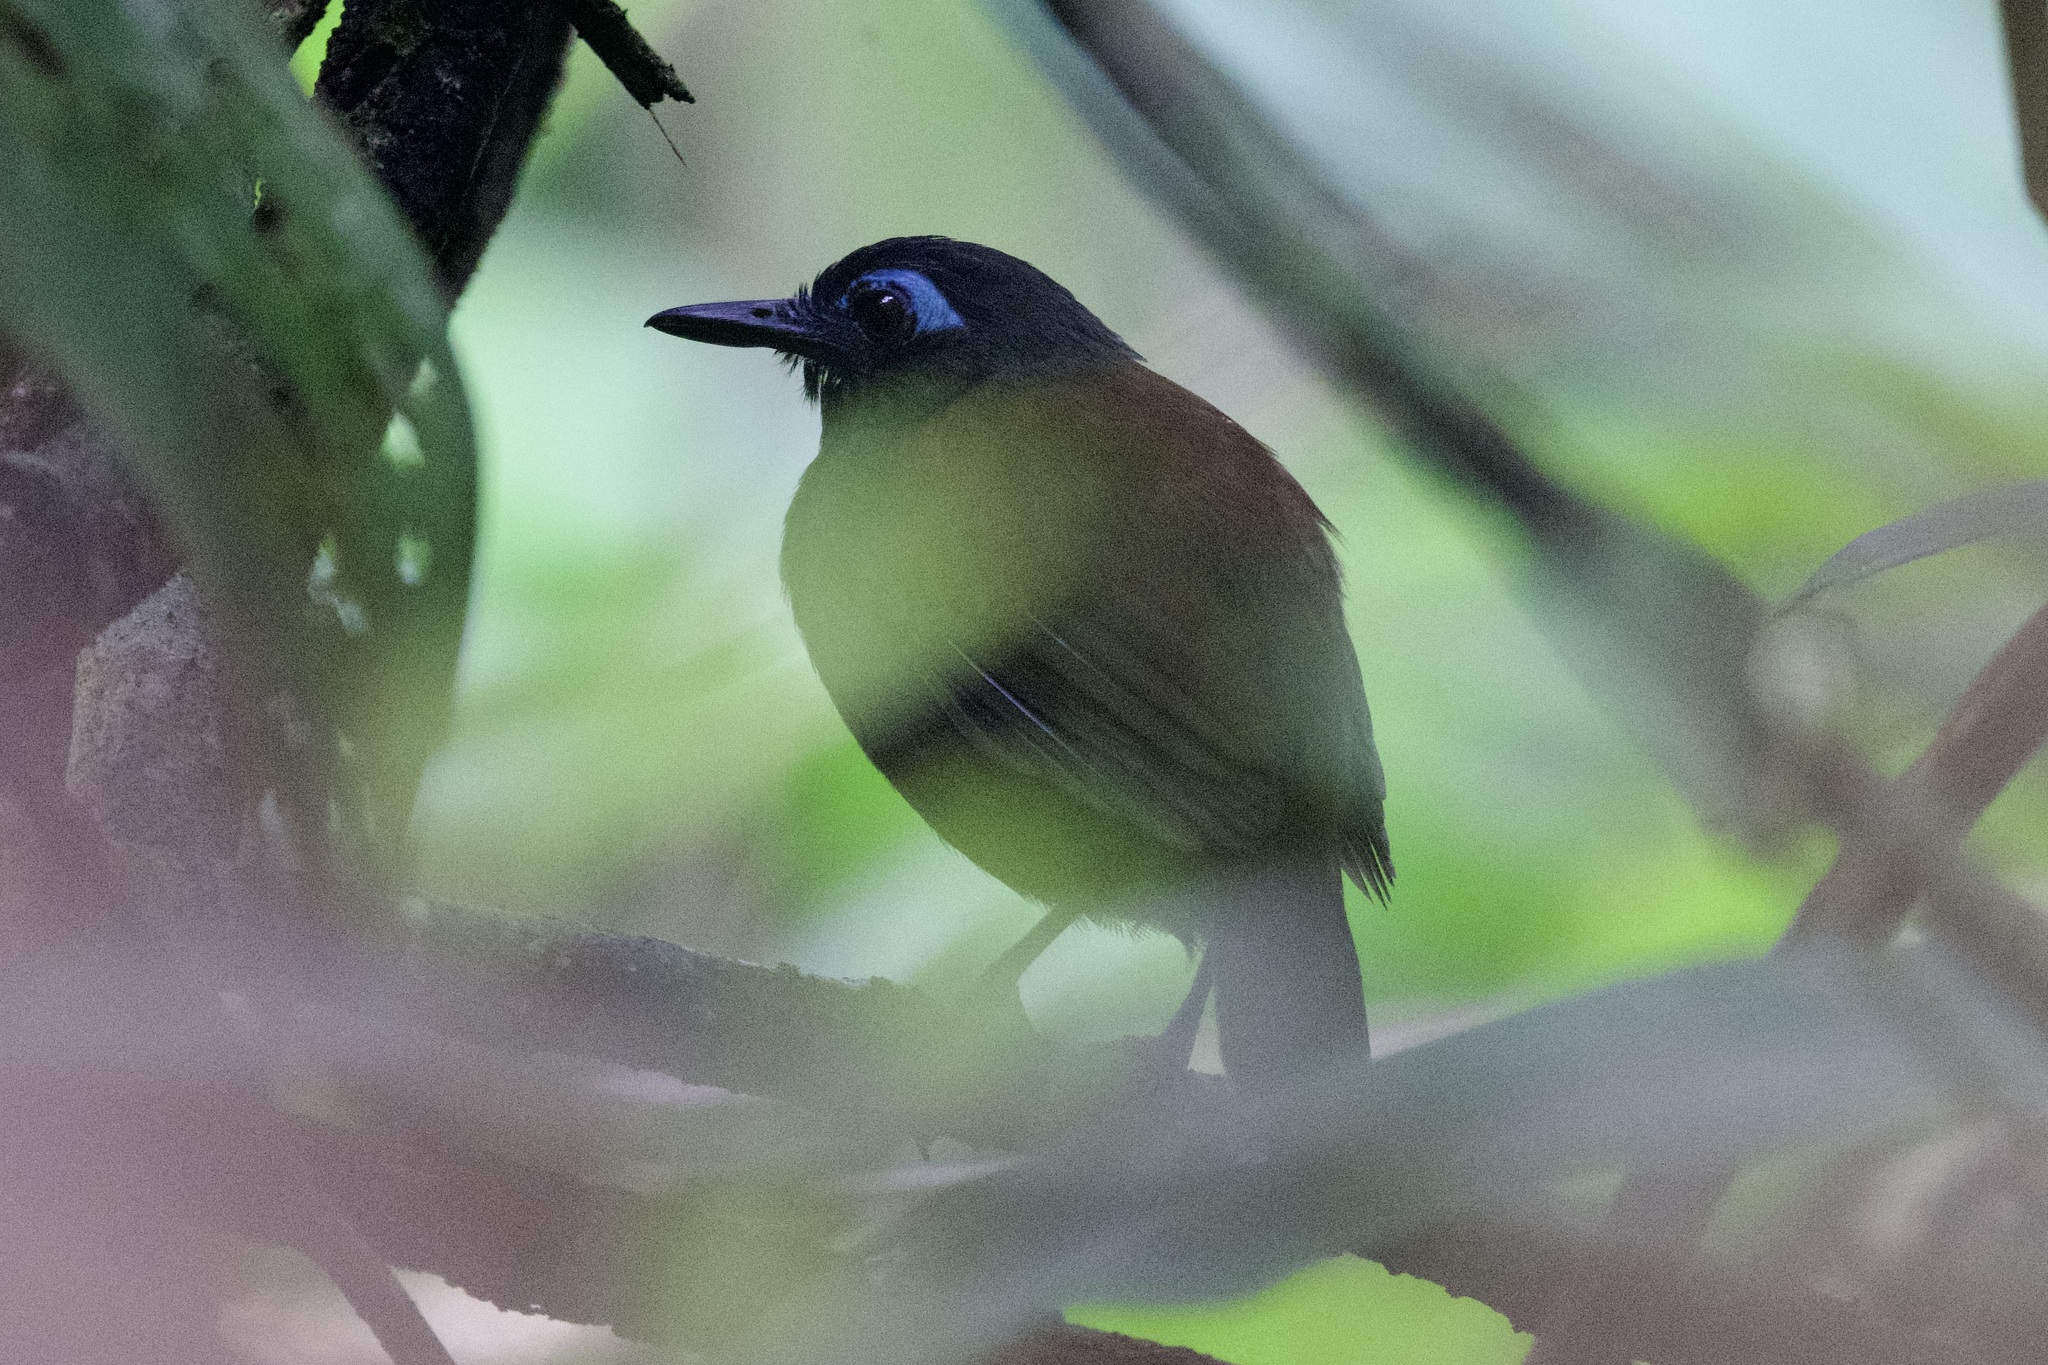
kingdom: Animalia
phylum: Chordata
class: Aves
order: Passeriformes
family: Thamnophilidae
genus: Myrmeciza
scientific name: Myrmeciza exsul
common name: Chestnut-backed antbird
